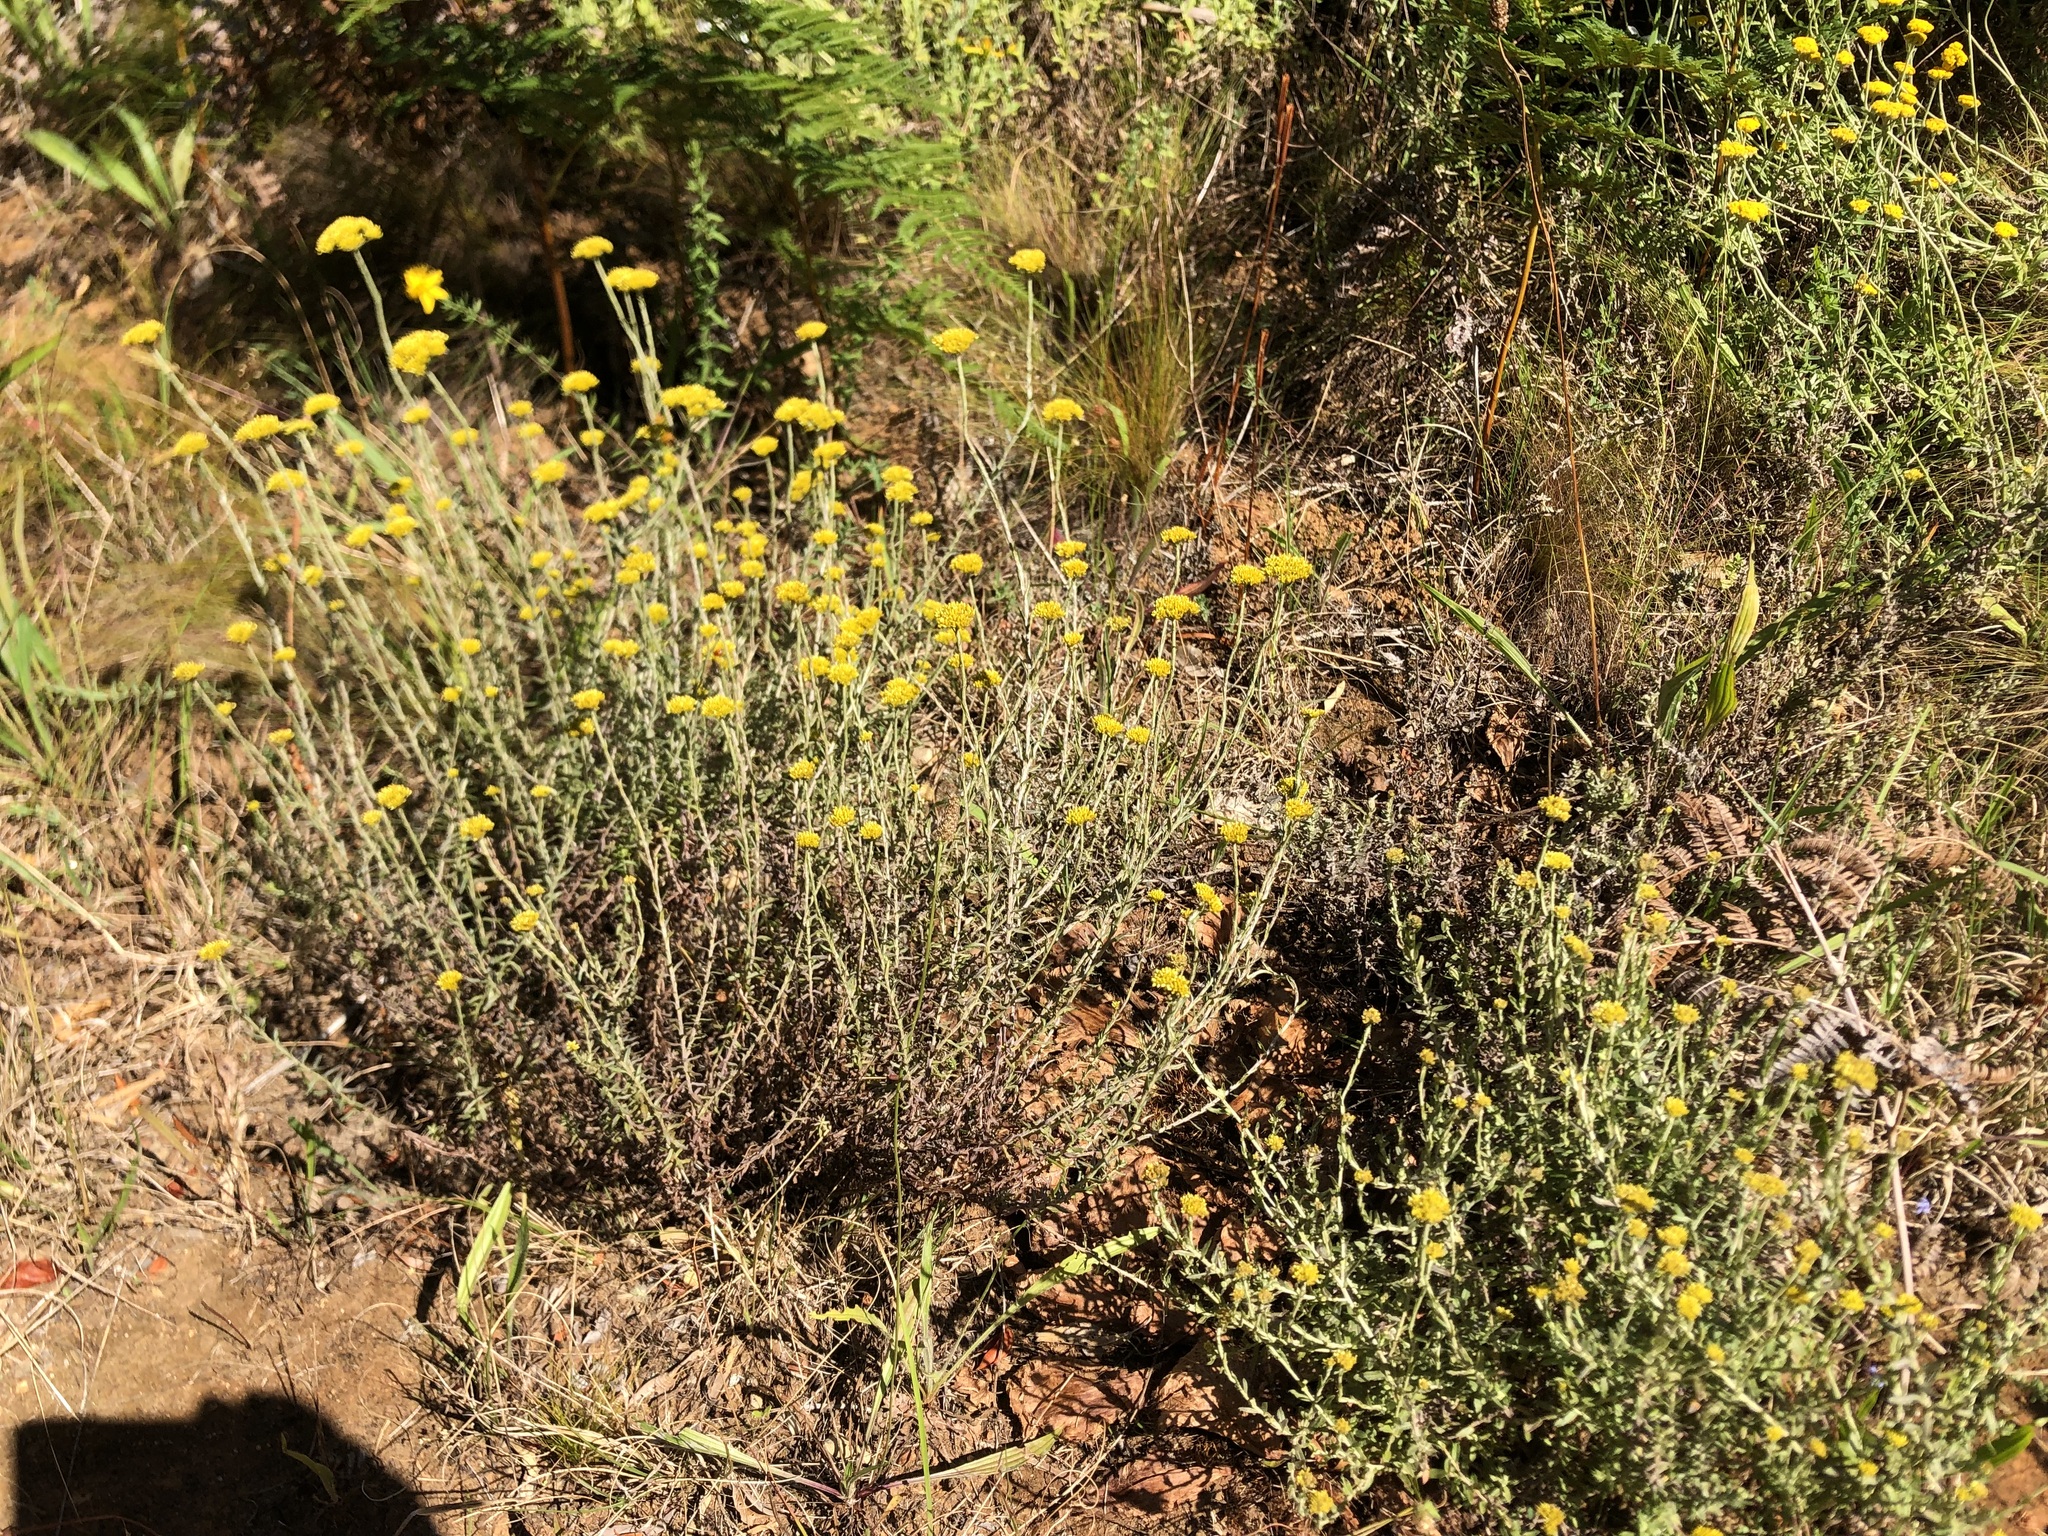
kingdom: Plantae
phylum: Tracheophyta
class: Magnoliopsida
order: Asterales
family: Asteraceae
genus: Helichrysum
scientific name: Helichrysum cymosum
